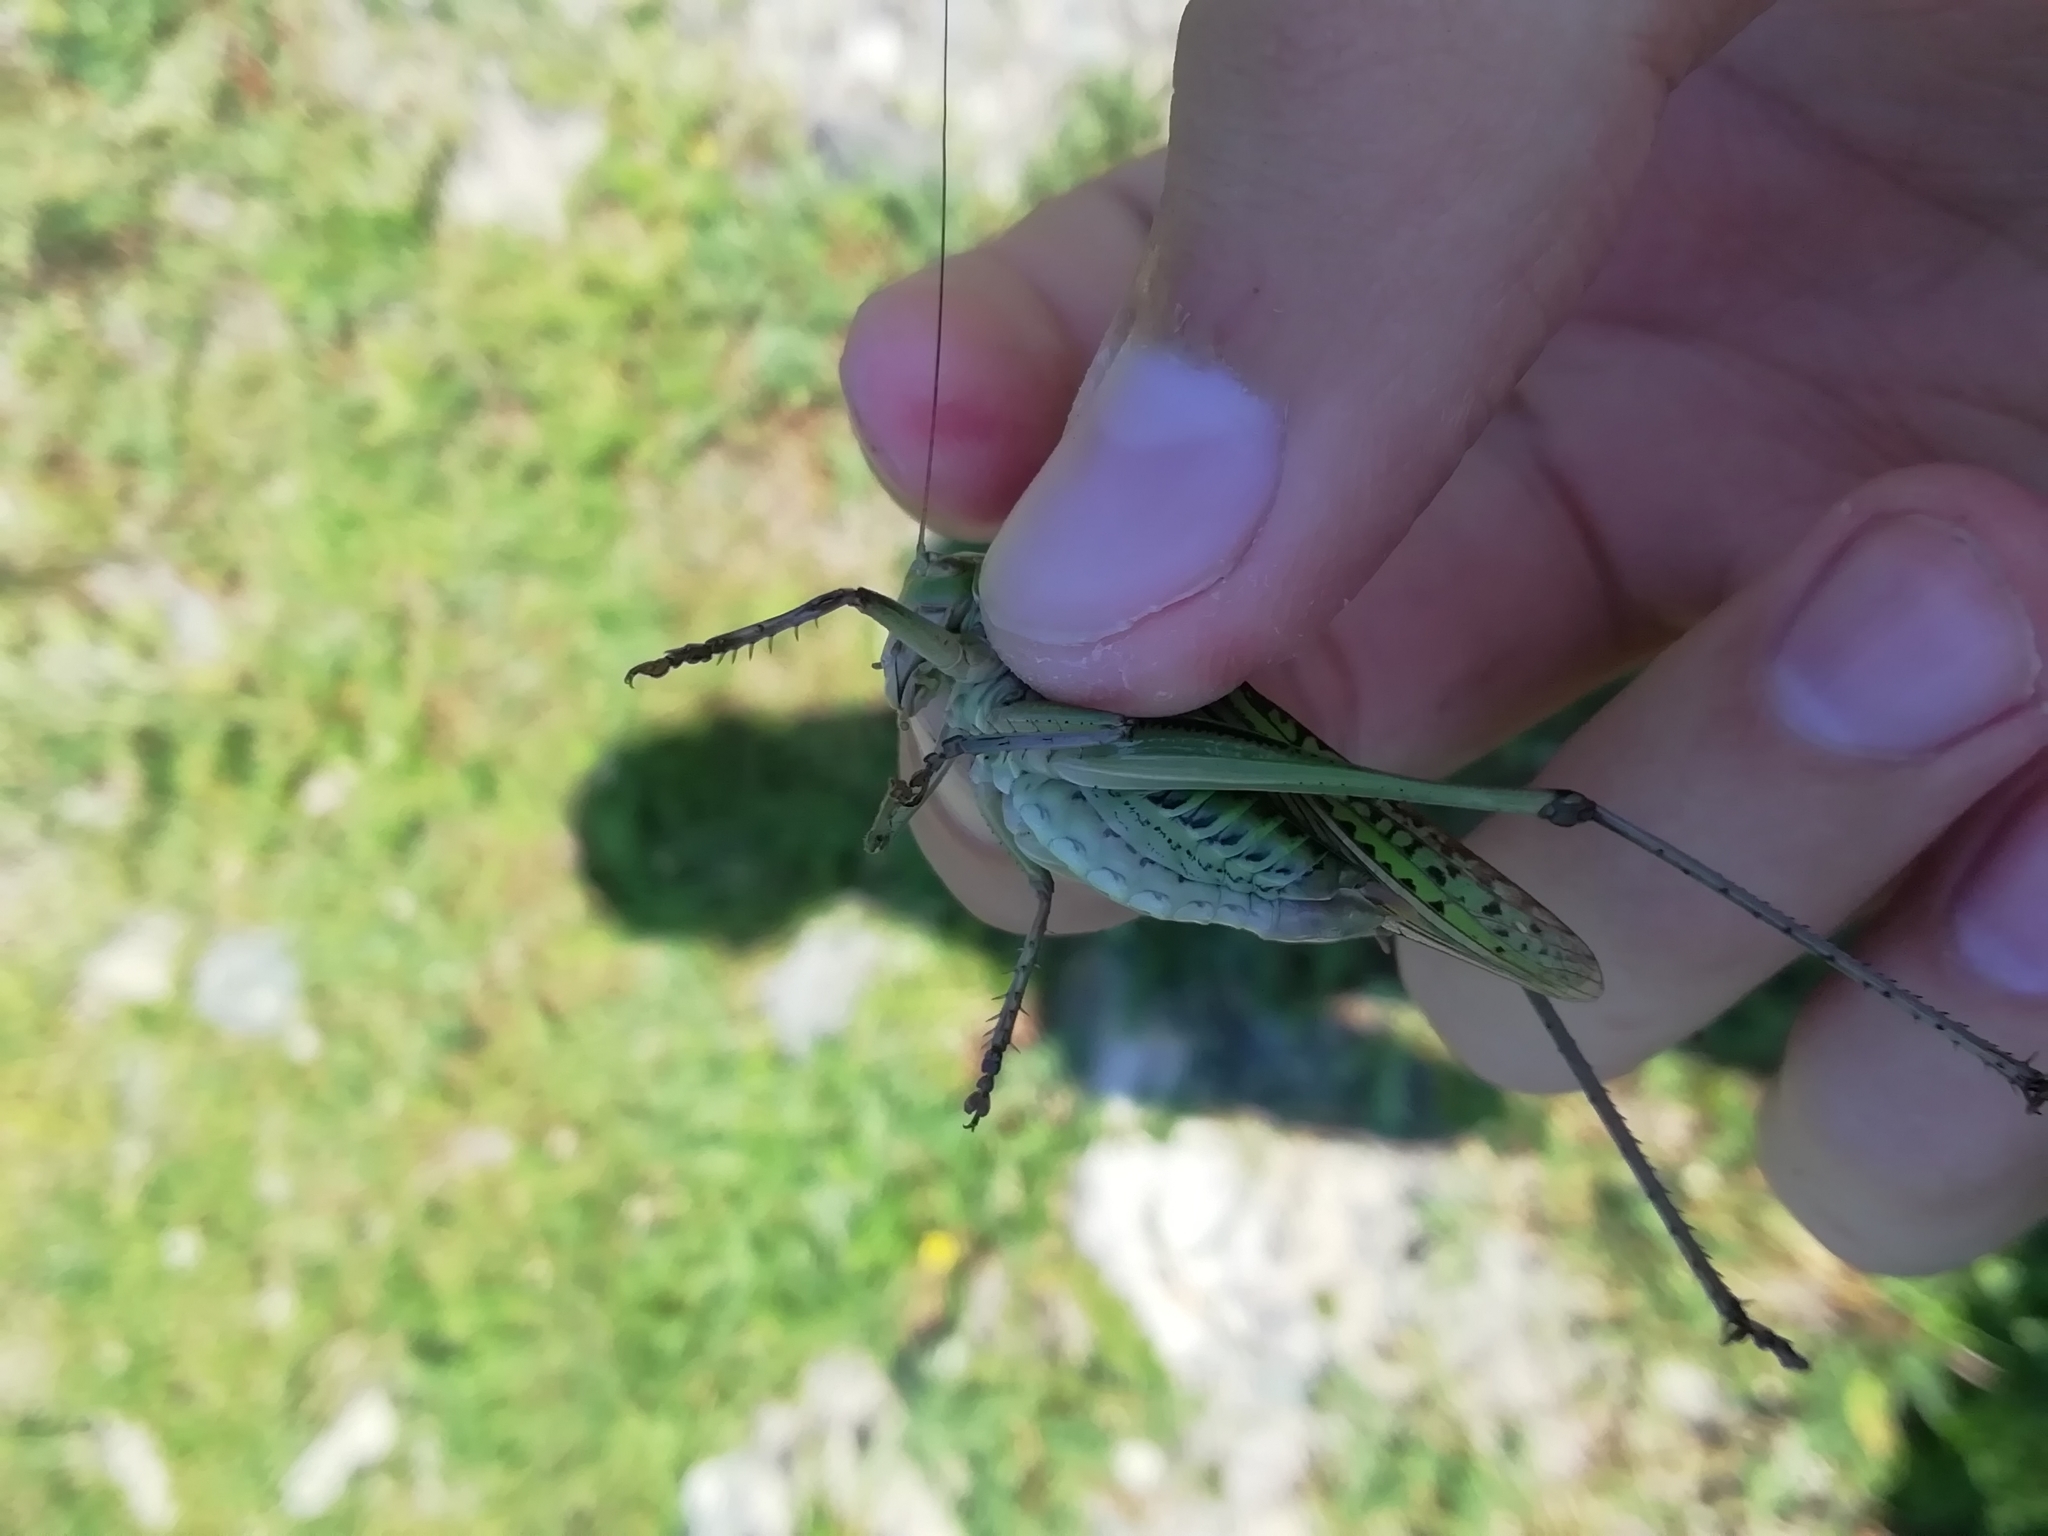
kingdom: Animalia
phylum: Arthropoda
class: Insecta
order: Orthoptera
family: Tettigoniidae
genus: Gampsocleis
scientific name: Gampsocleis sedakovii
